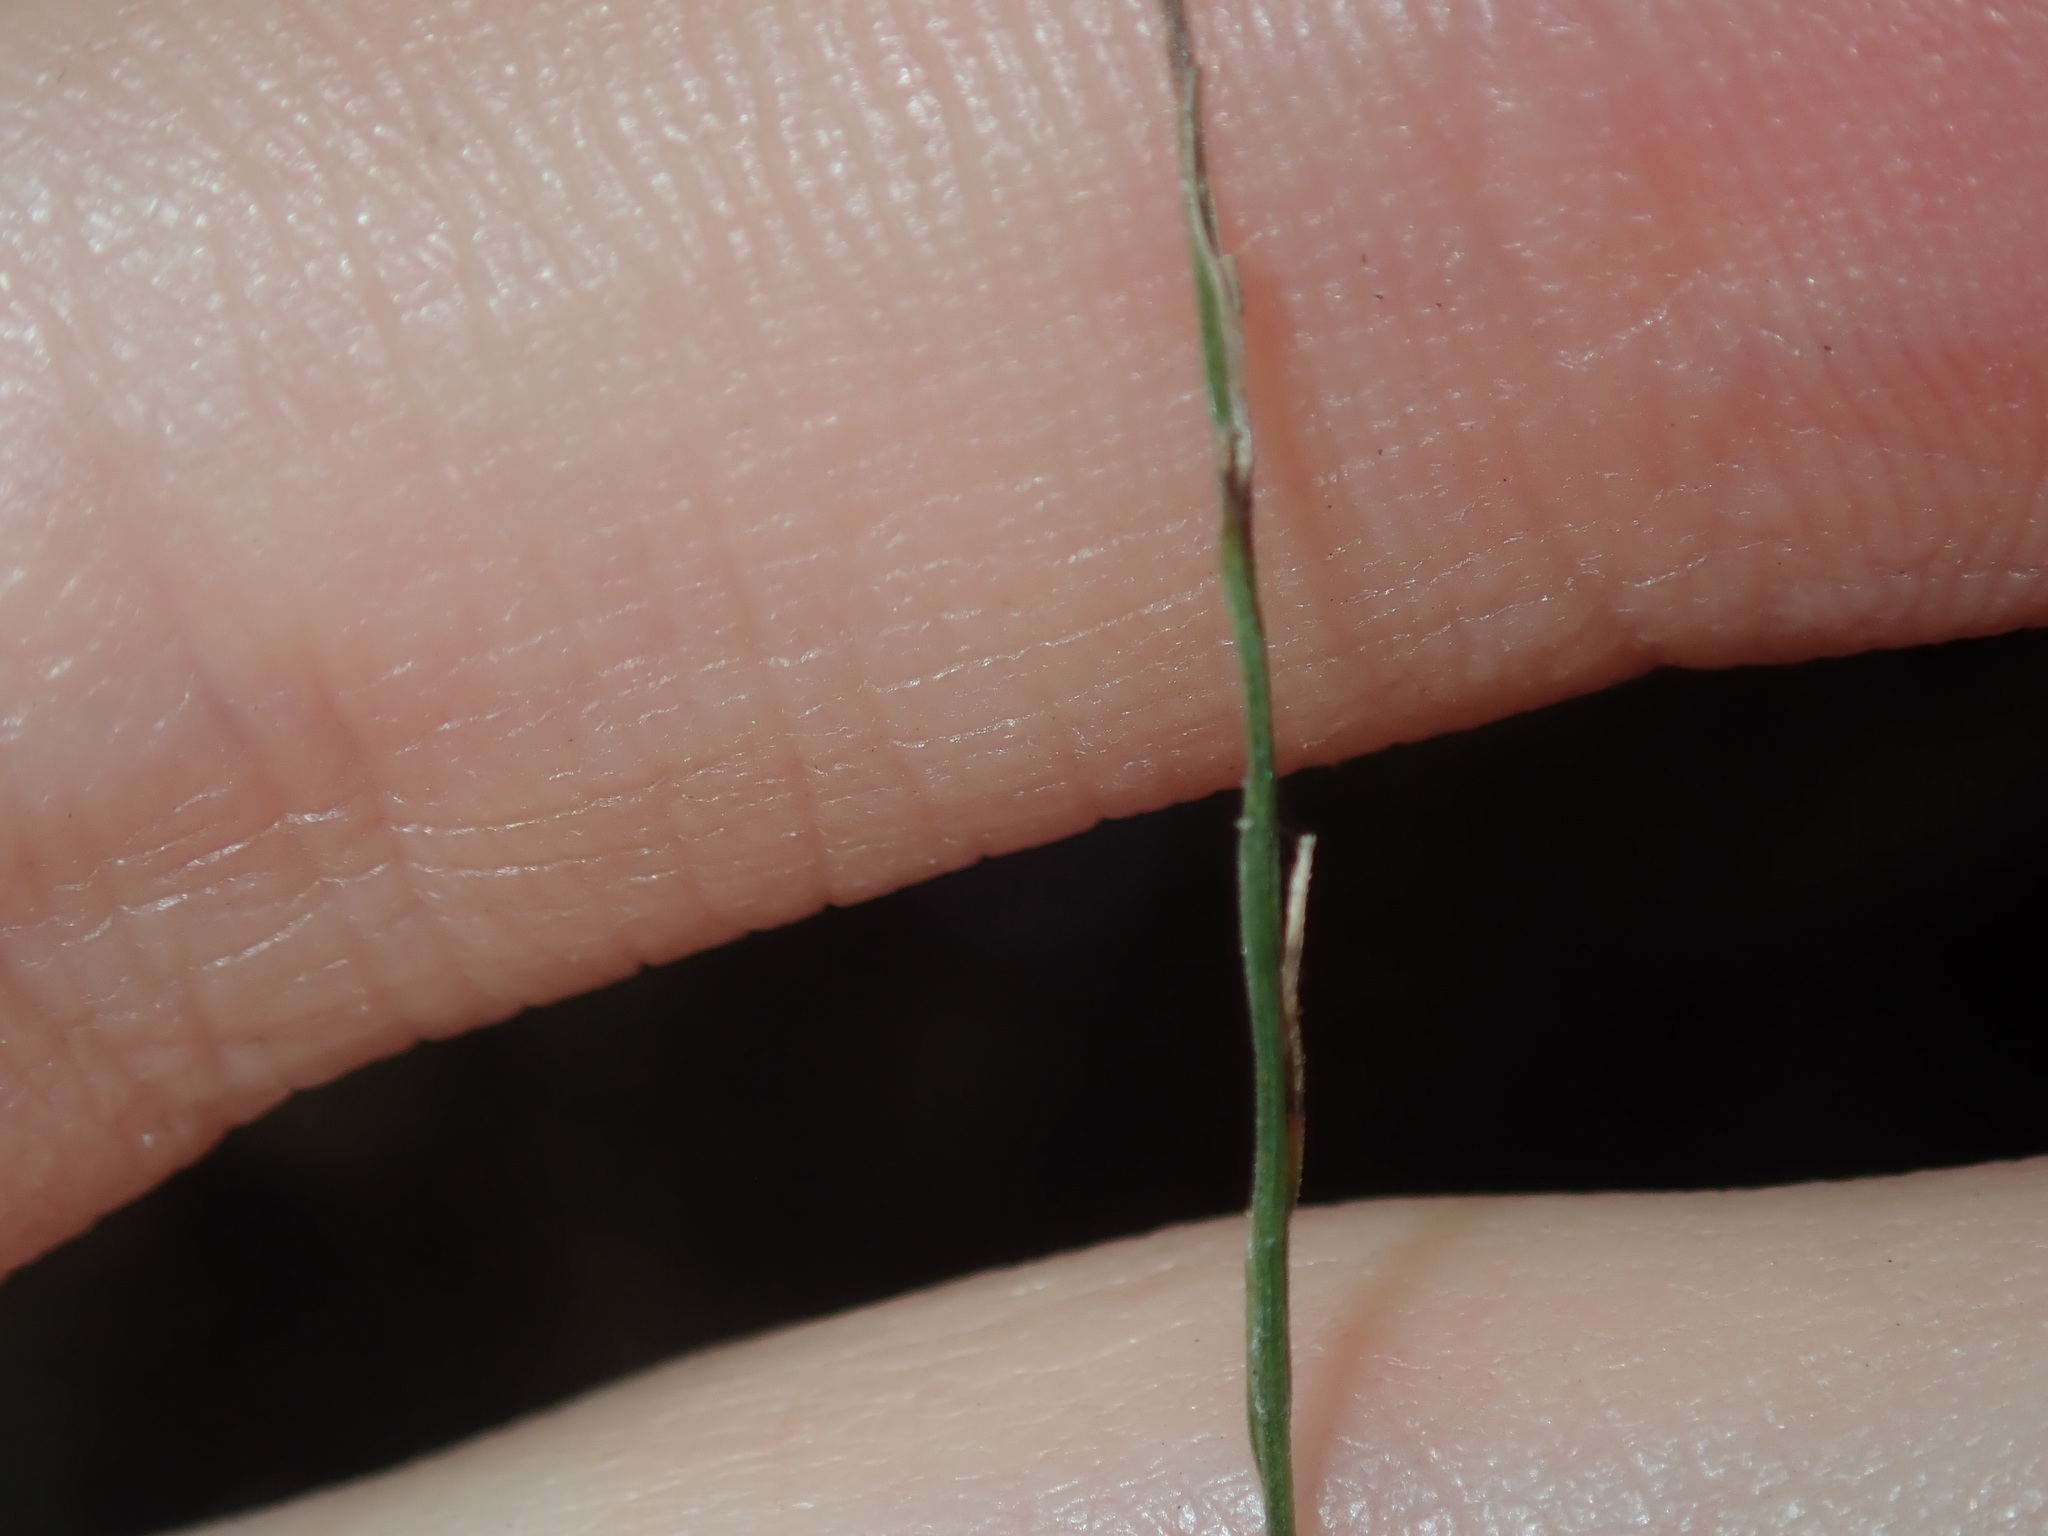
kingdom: Plantae
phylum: Tracheophyta
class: Liliopsida
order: Poales
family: Poaceae
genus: Entolasia
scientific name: Entolasia marginata
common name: Australian panicgrass
